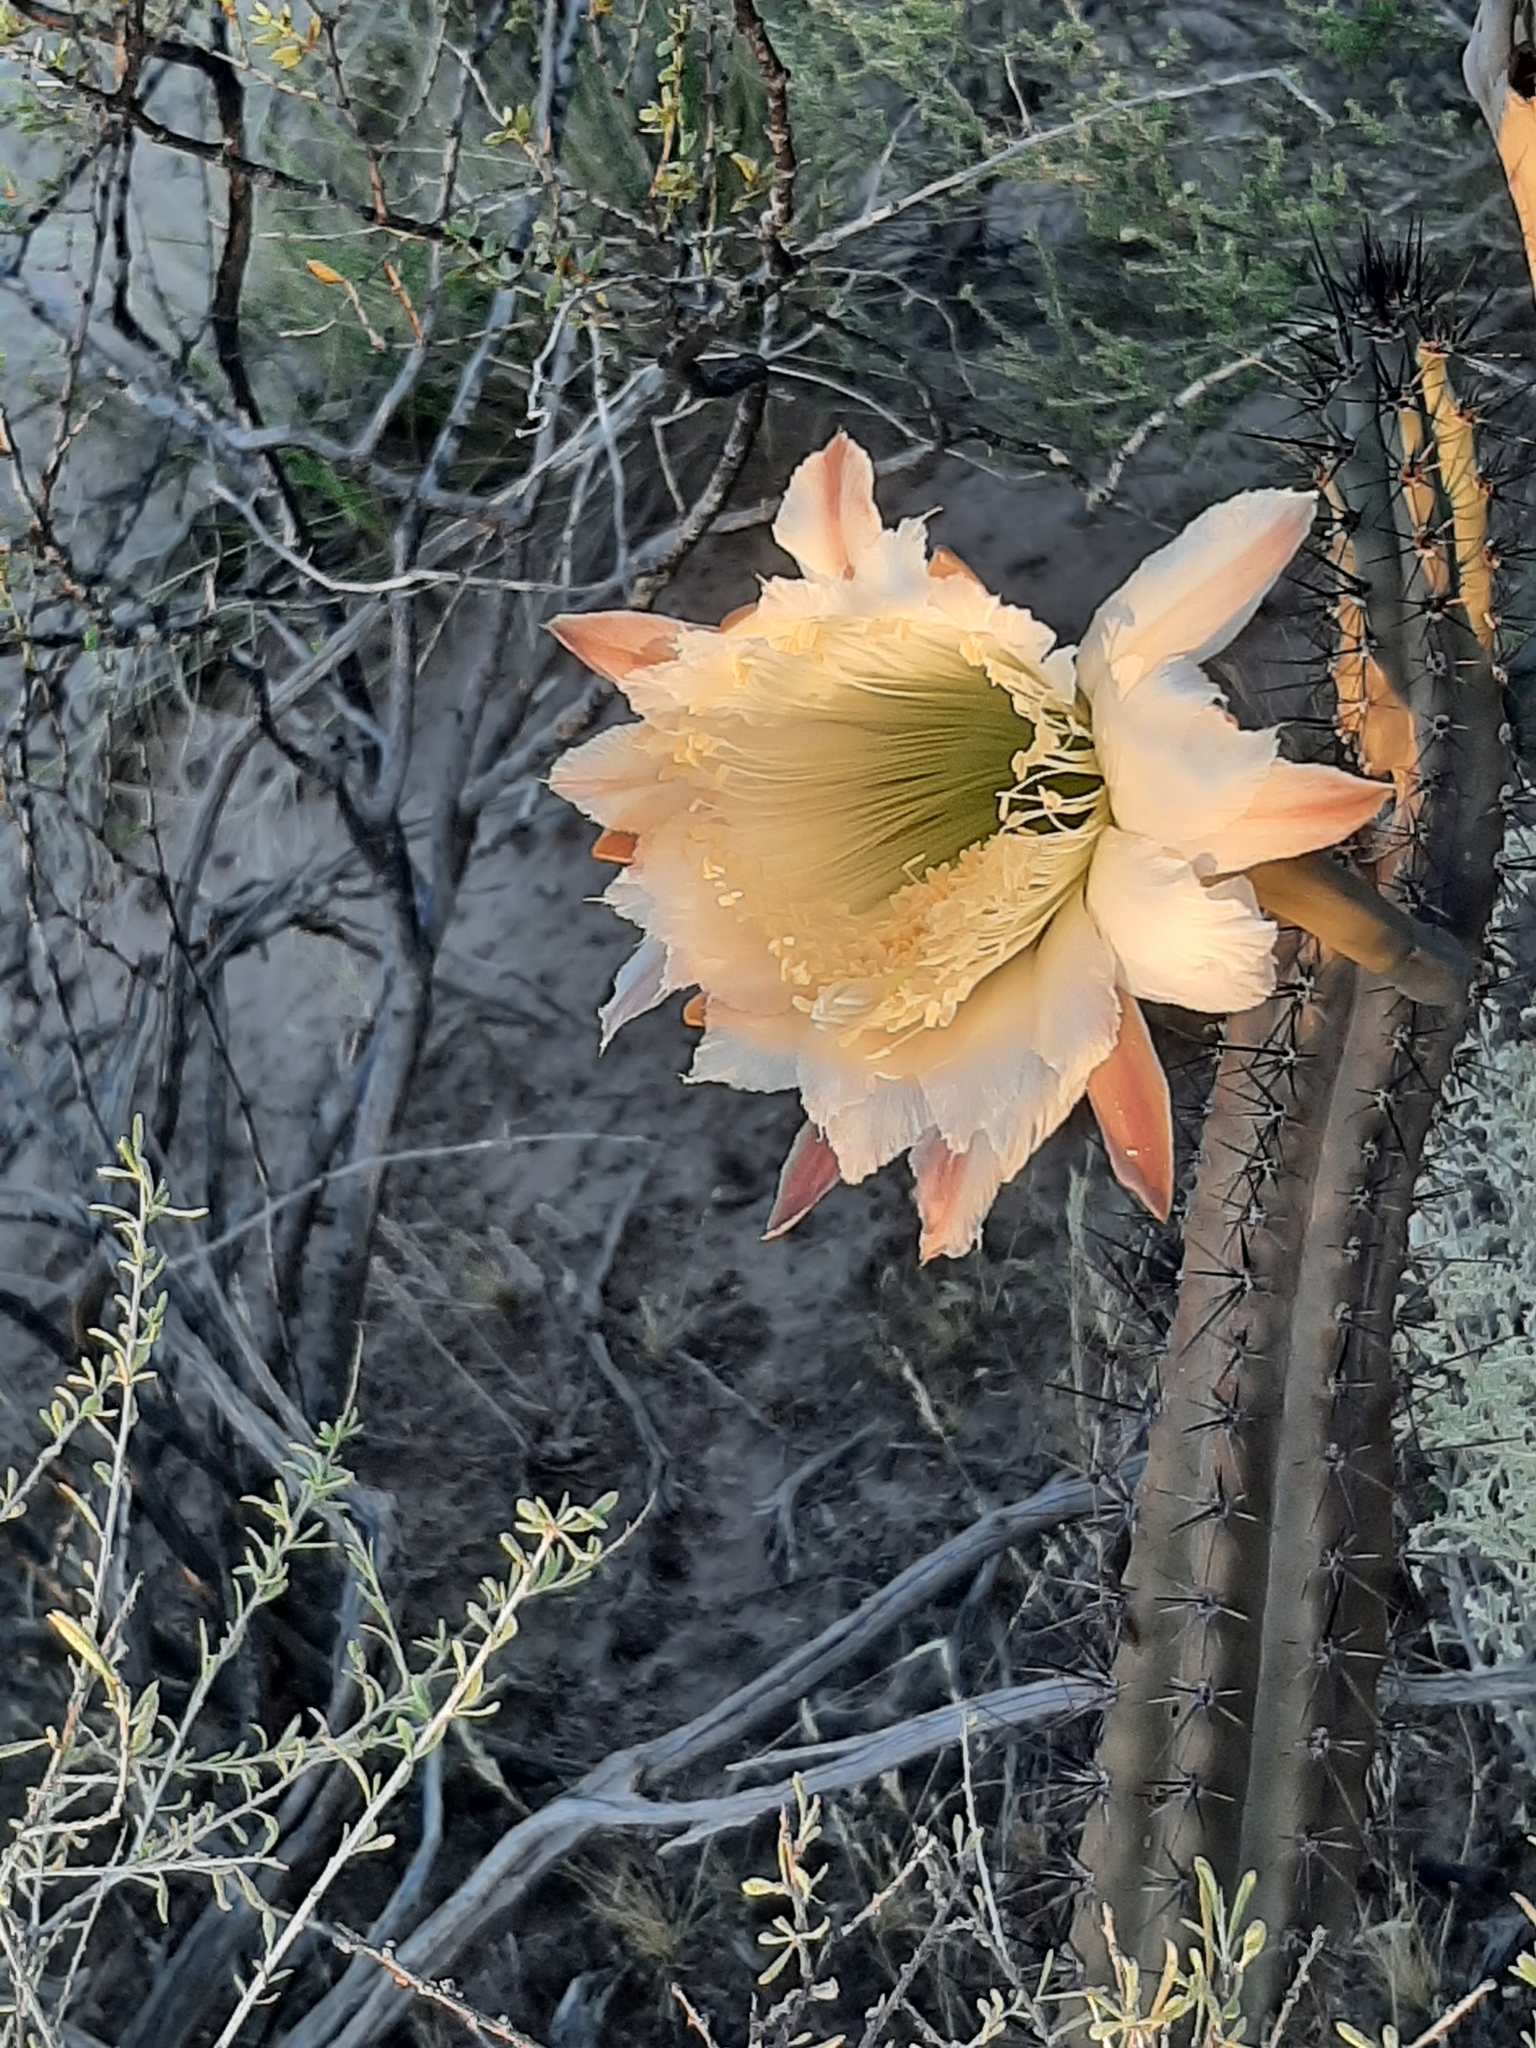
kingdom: Plantae
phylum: Tracheophyta
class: Magnoliopsida
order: Caryophyllales
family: Cactaceae
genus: Cereus
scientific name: Cereus aethiops
